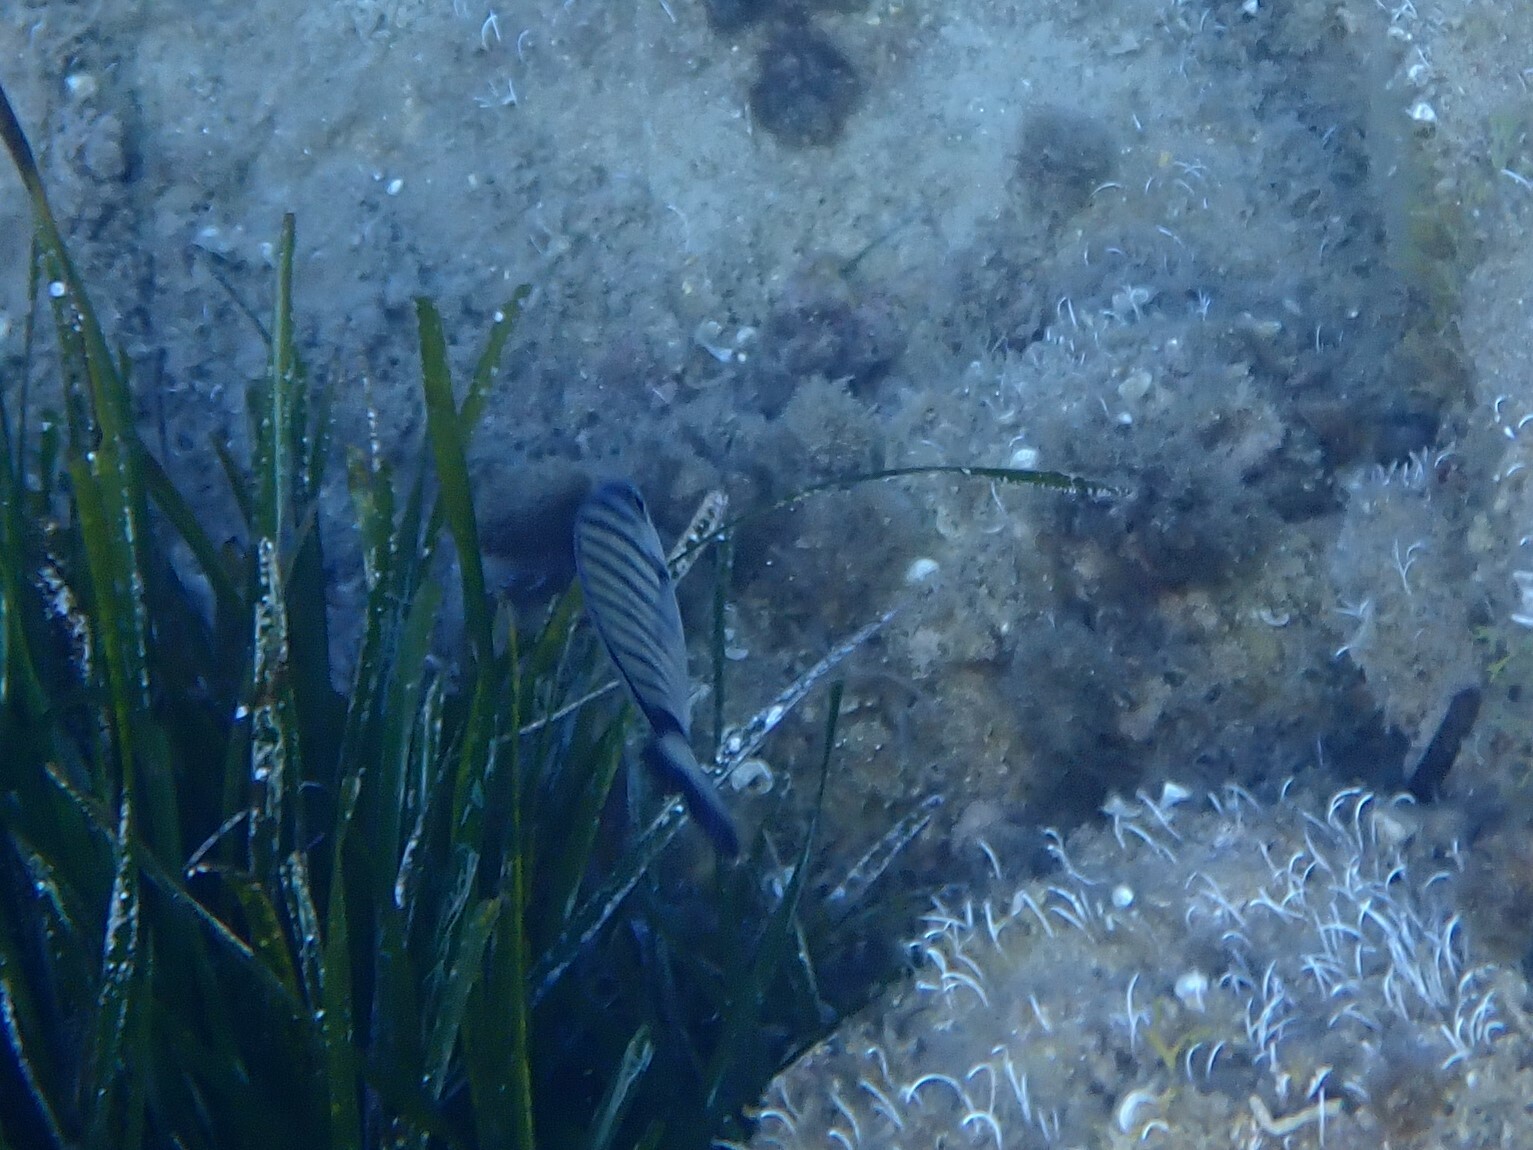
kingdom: Animalia
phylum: Chordata
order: Perciformes
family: Sparidae
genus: Diplodus
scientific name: Diplodus puntazzo
